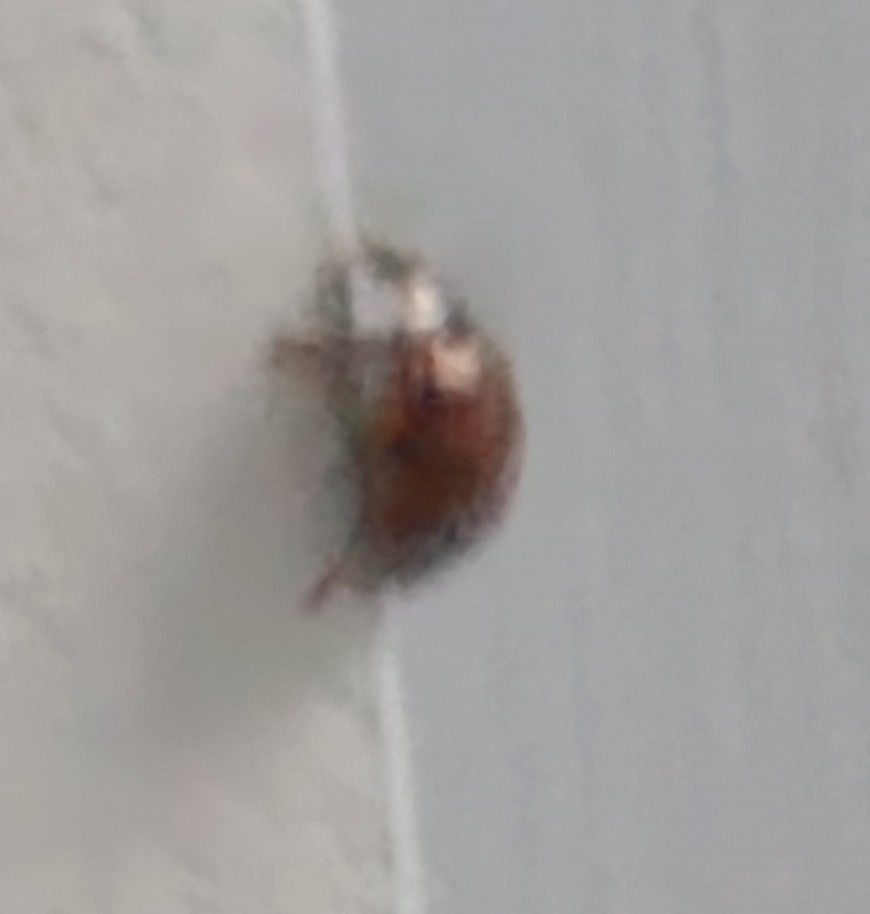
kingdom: Animalia
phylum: Arthropoda
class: Insecta
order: Coleoptera
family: Coccinellidae
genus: Harmonia
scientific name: Harmonia axyridis
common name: Harlequin ladybird
